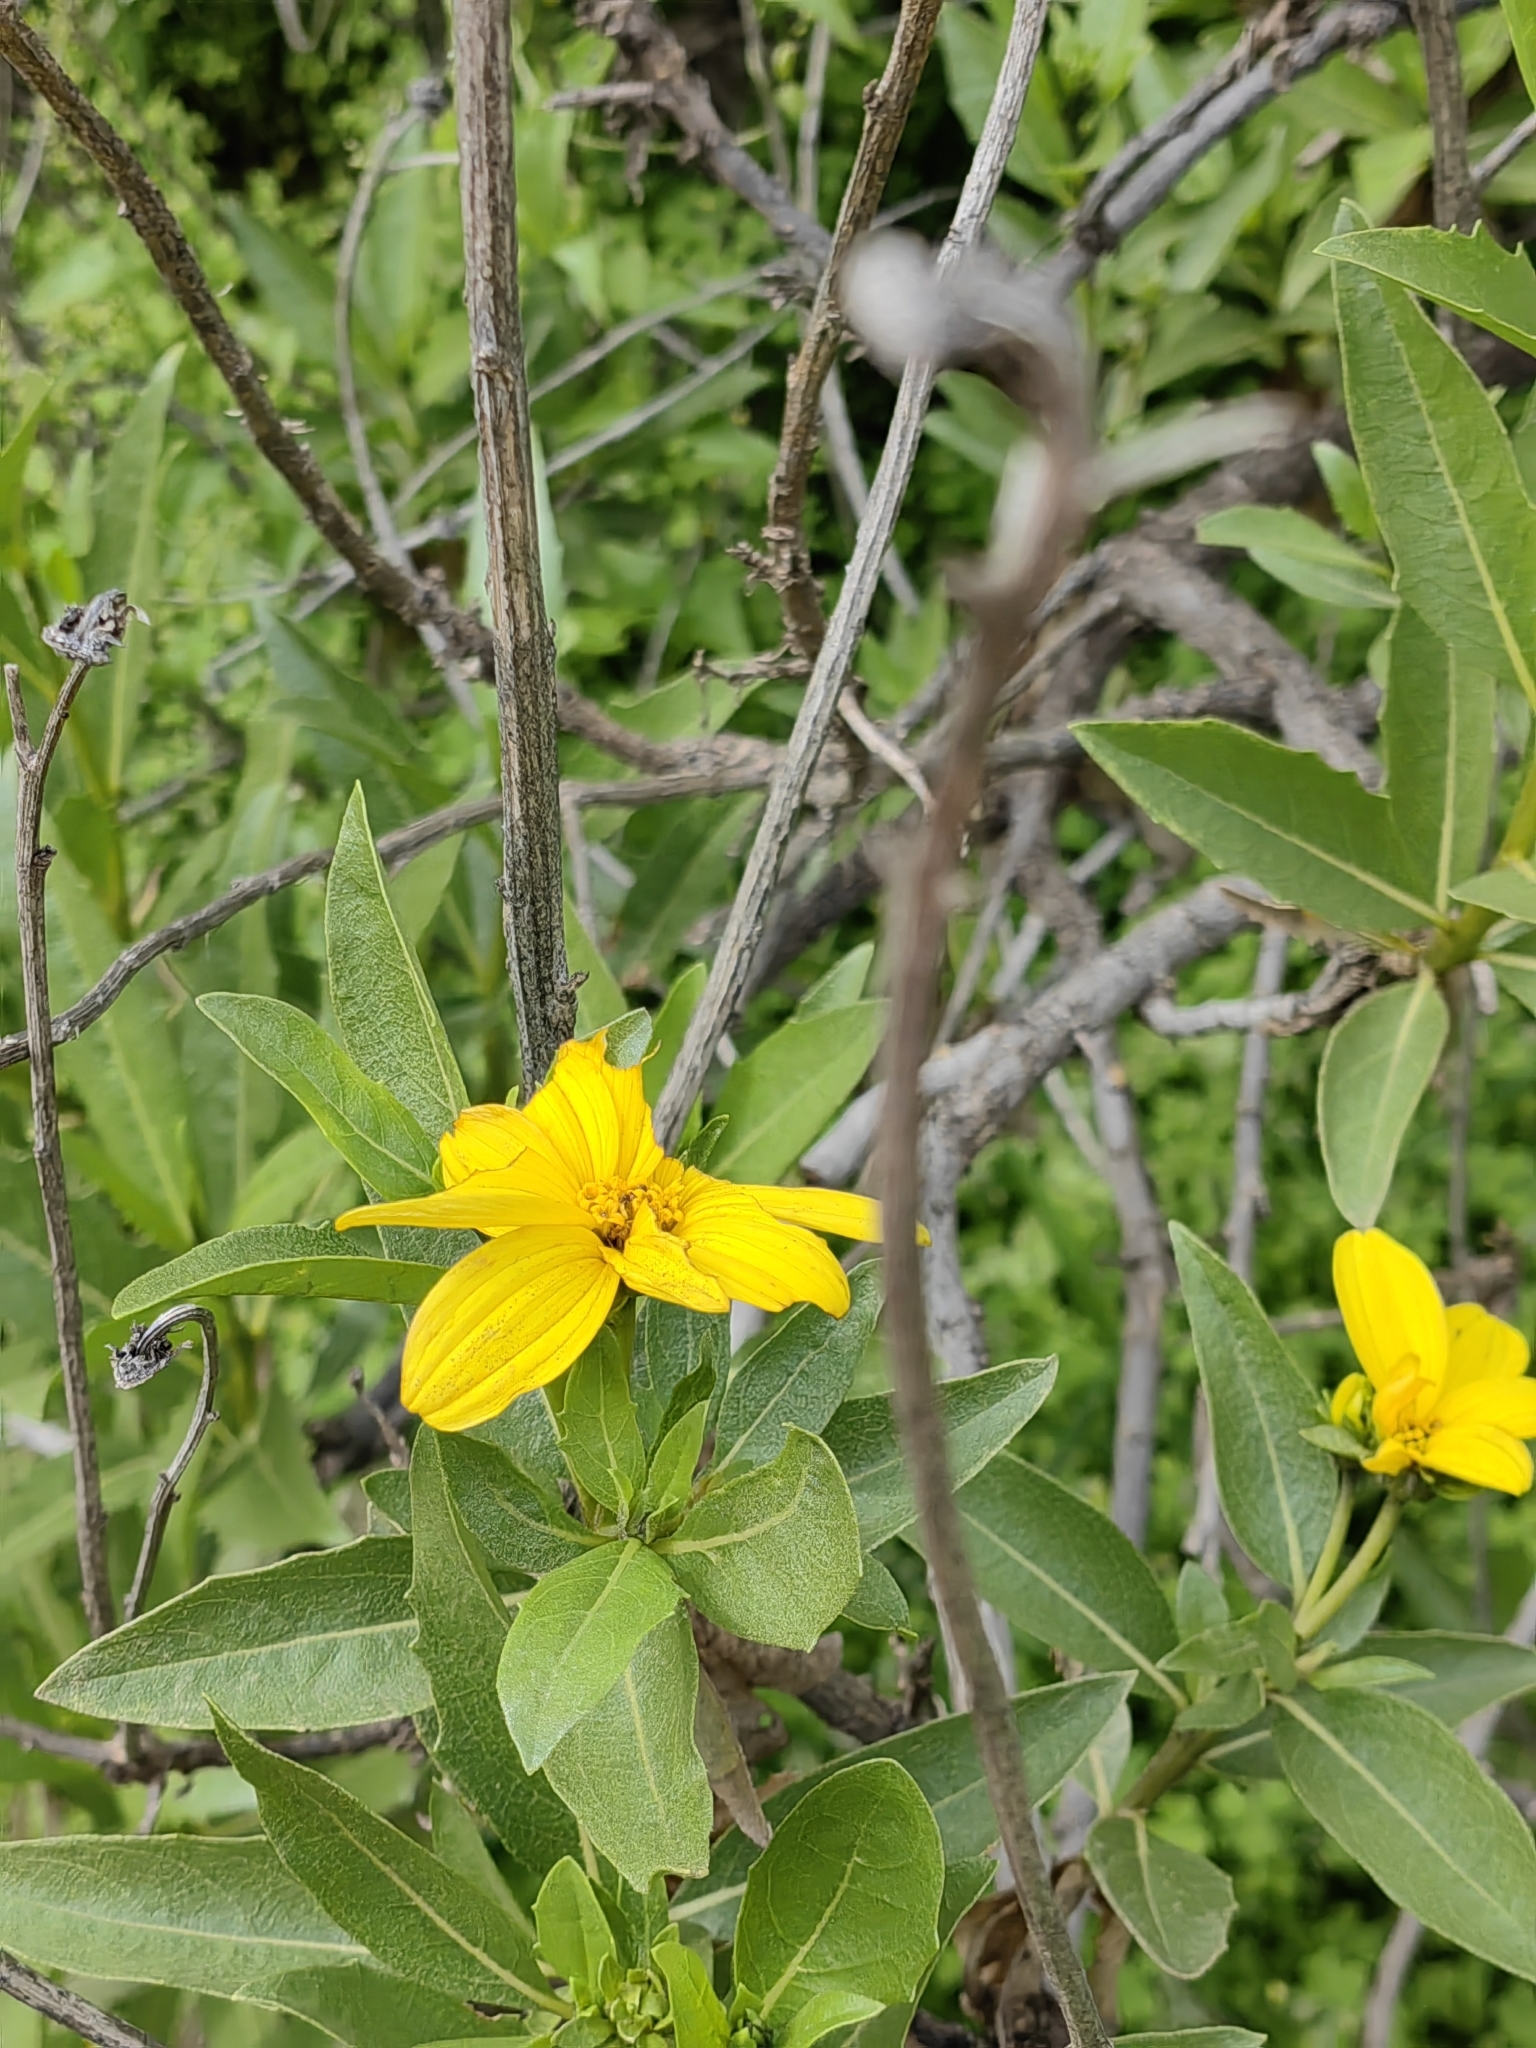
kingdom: Plantae
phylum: Tracheophyta
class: Magnoliopsida
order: Asterales
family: Asteraceae
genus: Flourensia
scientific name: Flourensia thurifera
